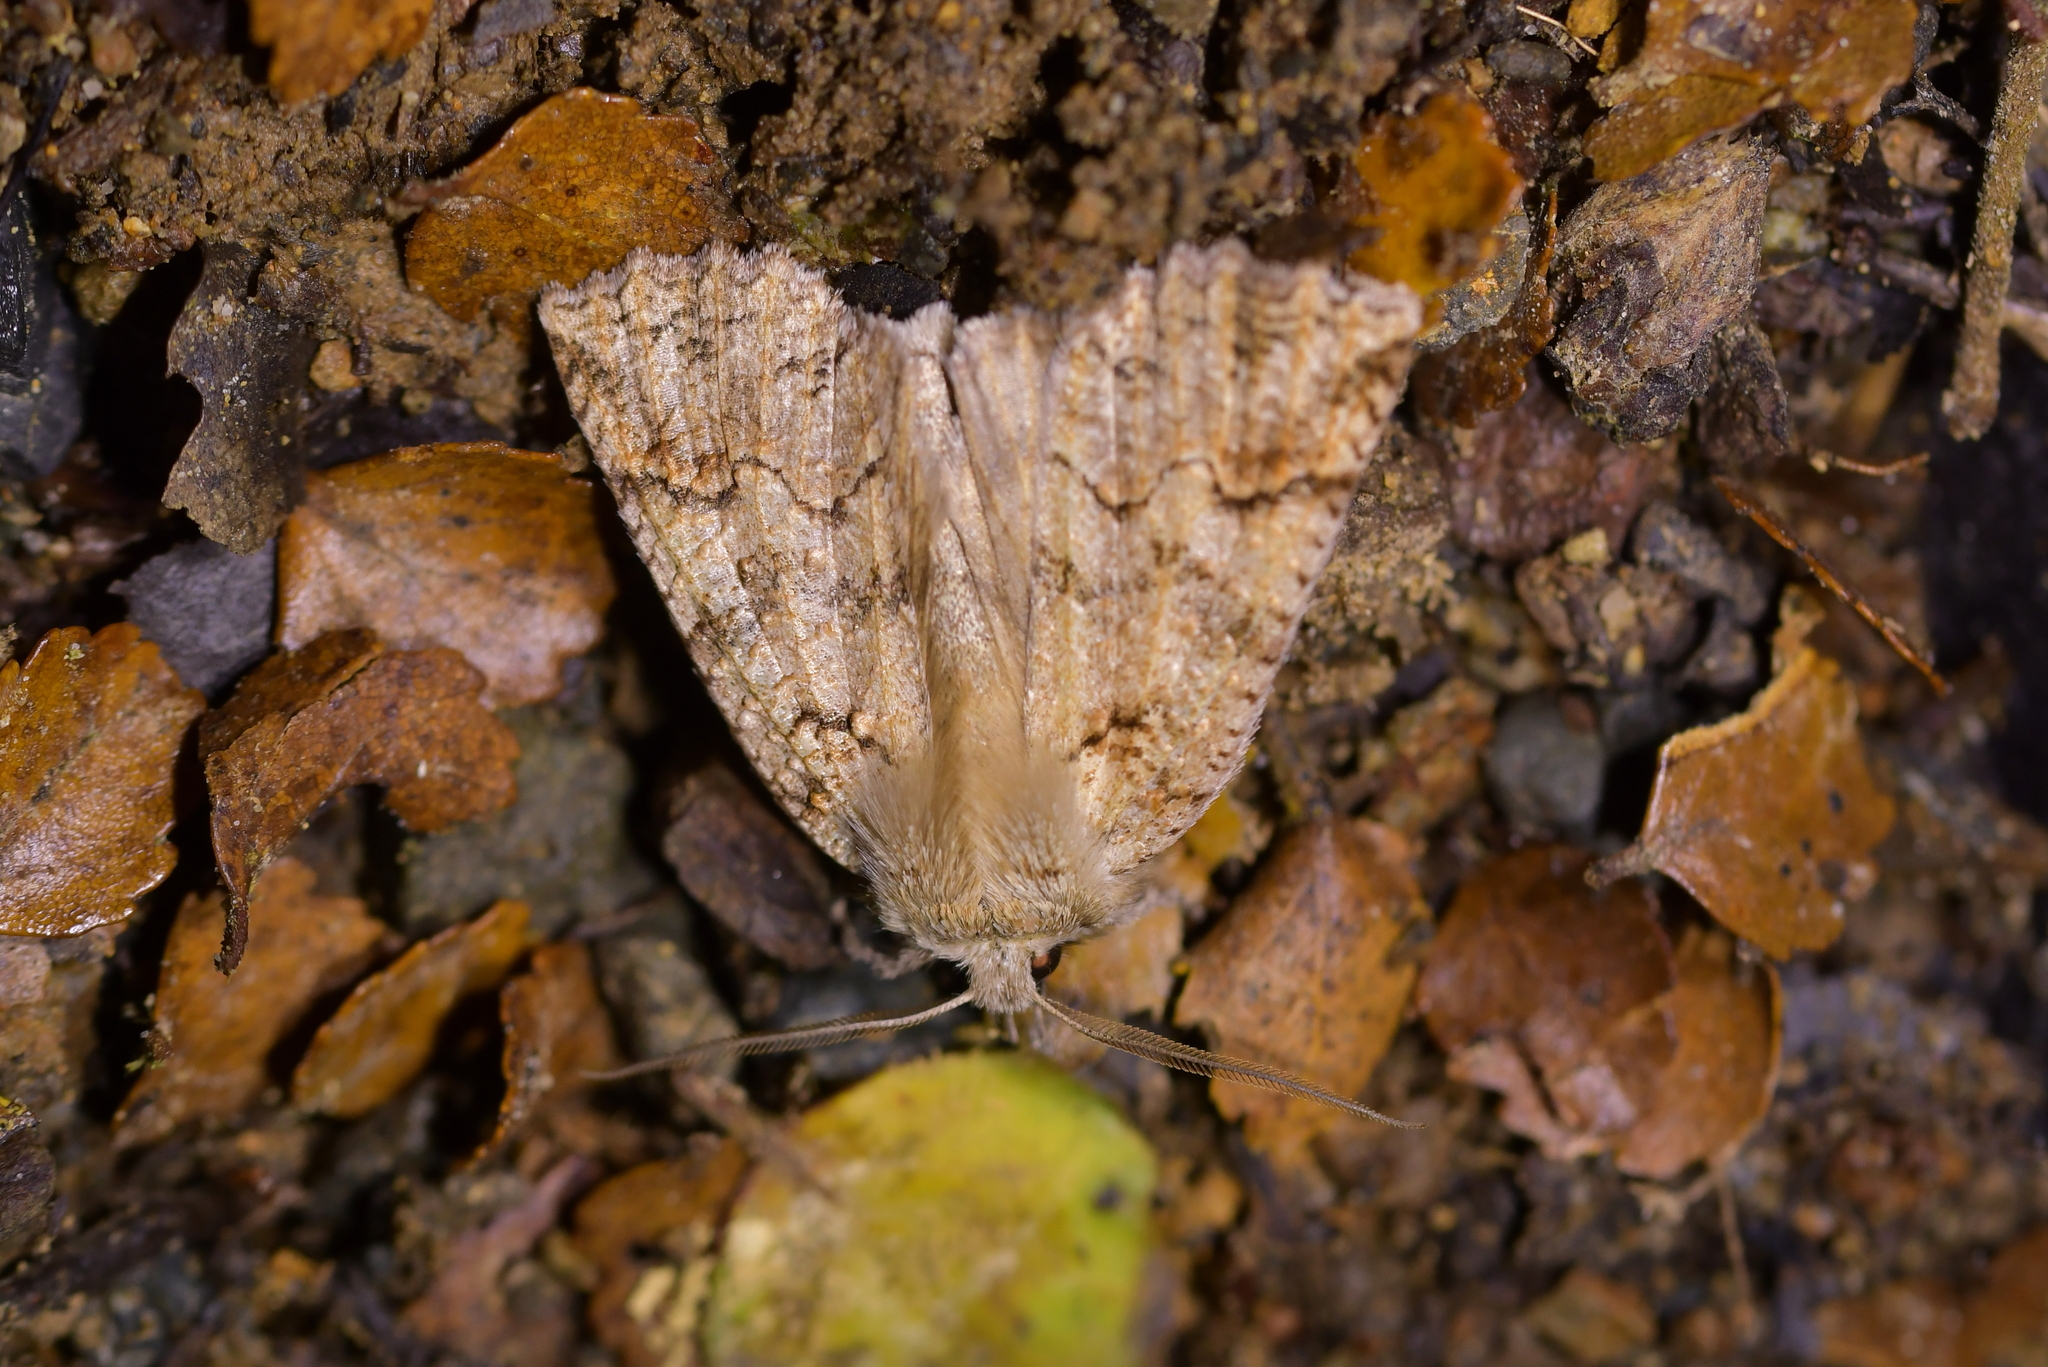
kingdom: Animalia
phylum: Arthropoda
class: Insecta
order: Lepidoptera
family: Geometridae
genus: Declana
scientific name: Declana floccosa
